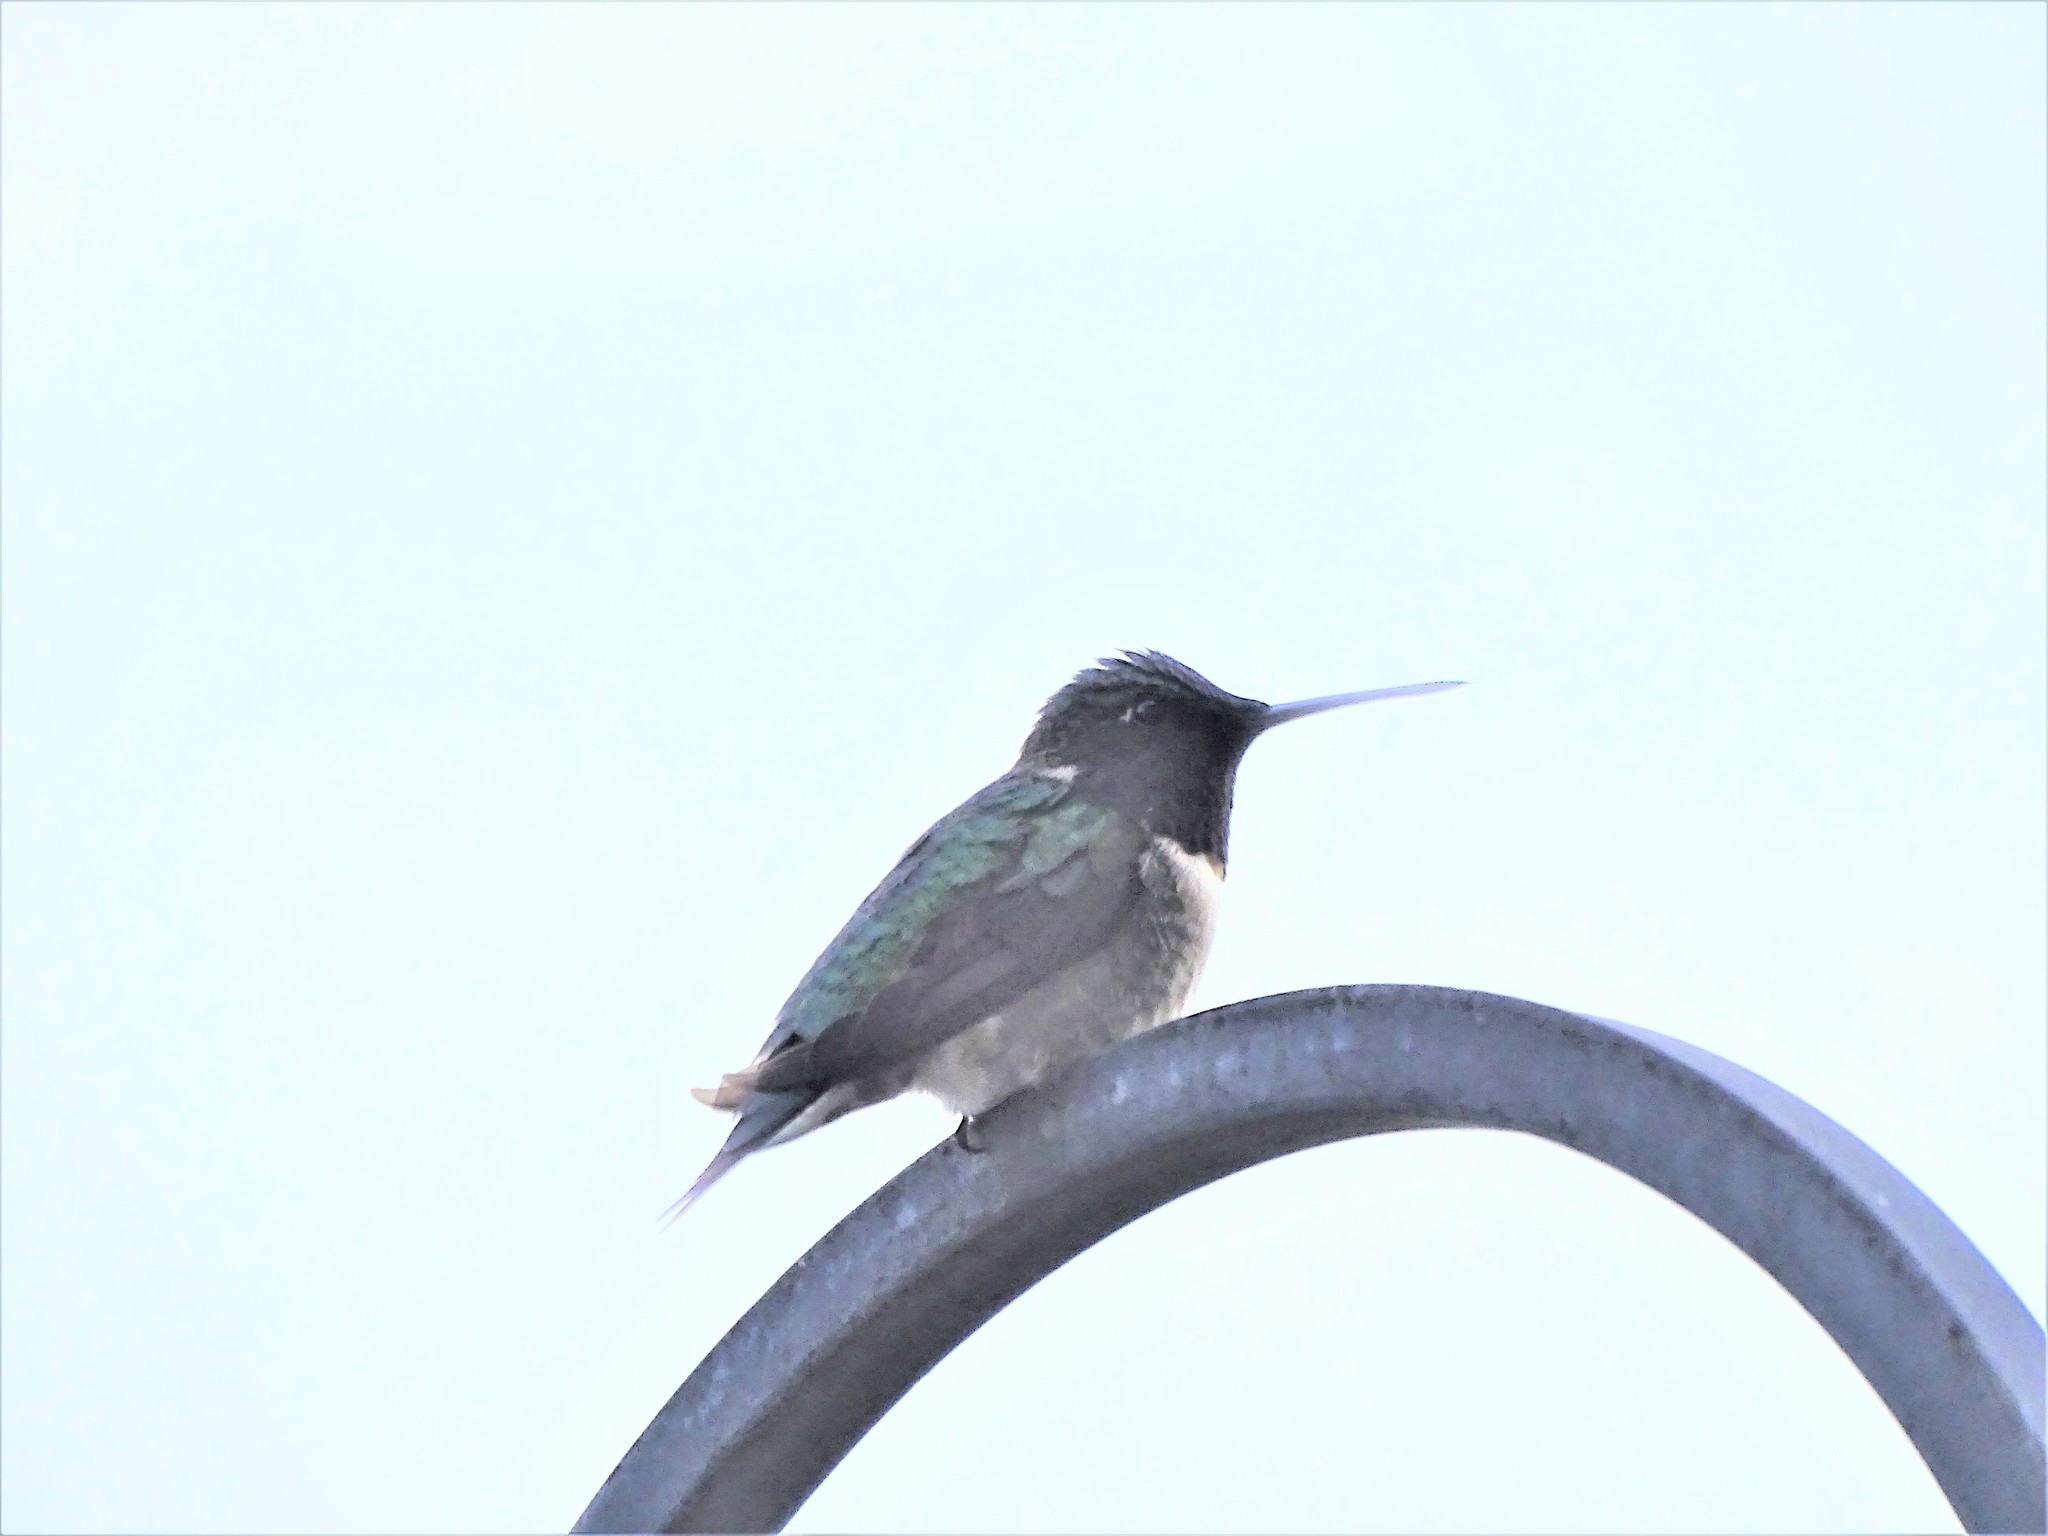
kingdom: Animalia
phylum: Chordata
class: Aves
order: Apodiformes
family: Trochilidae
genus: Archilochus
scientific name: Archilochus colubris
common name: Ruby-throated hummingbird
